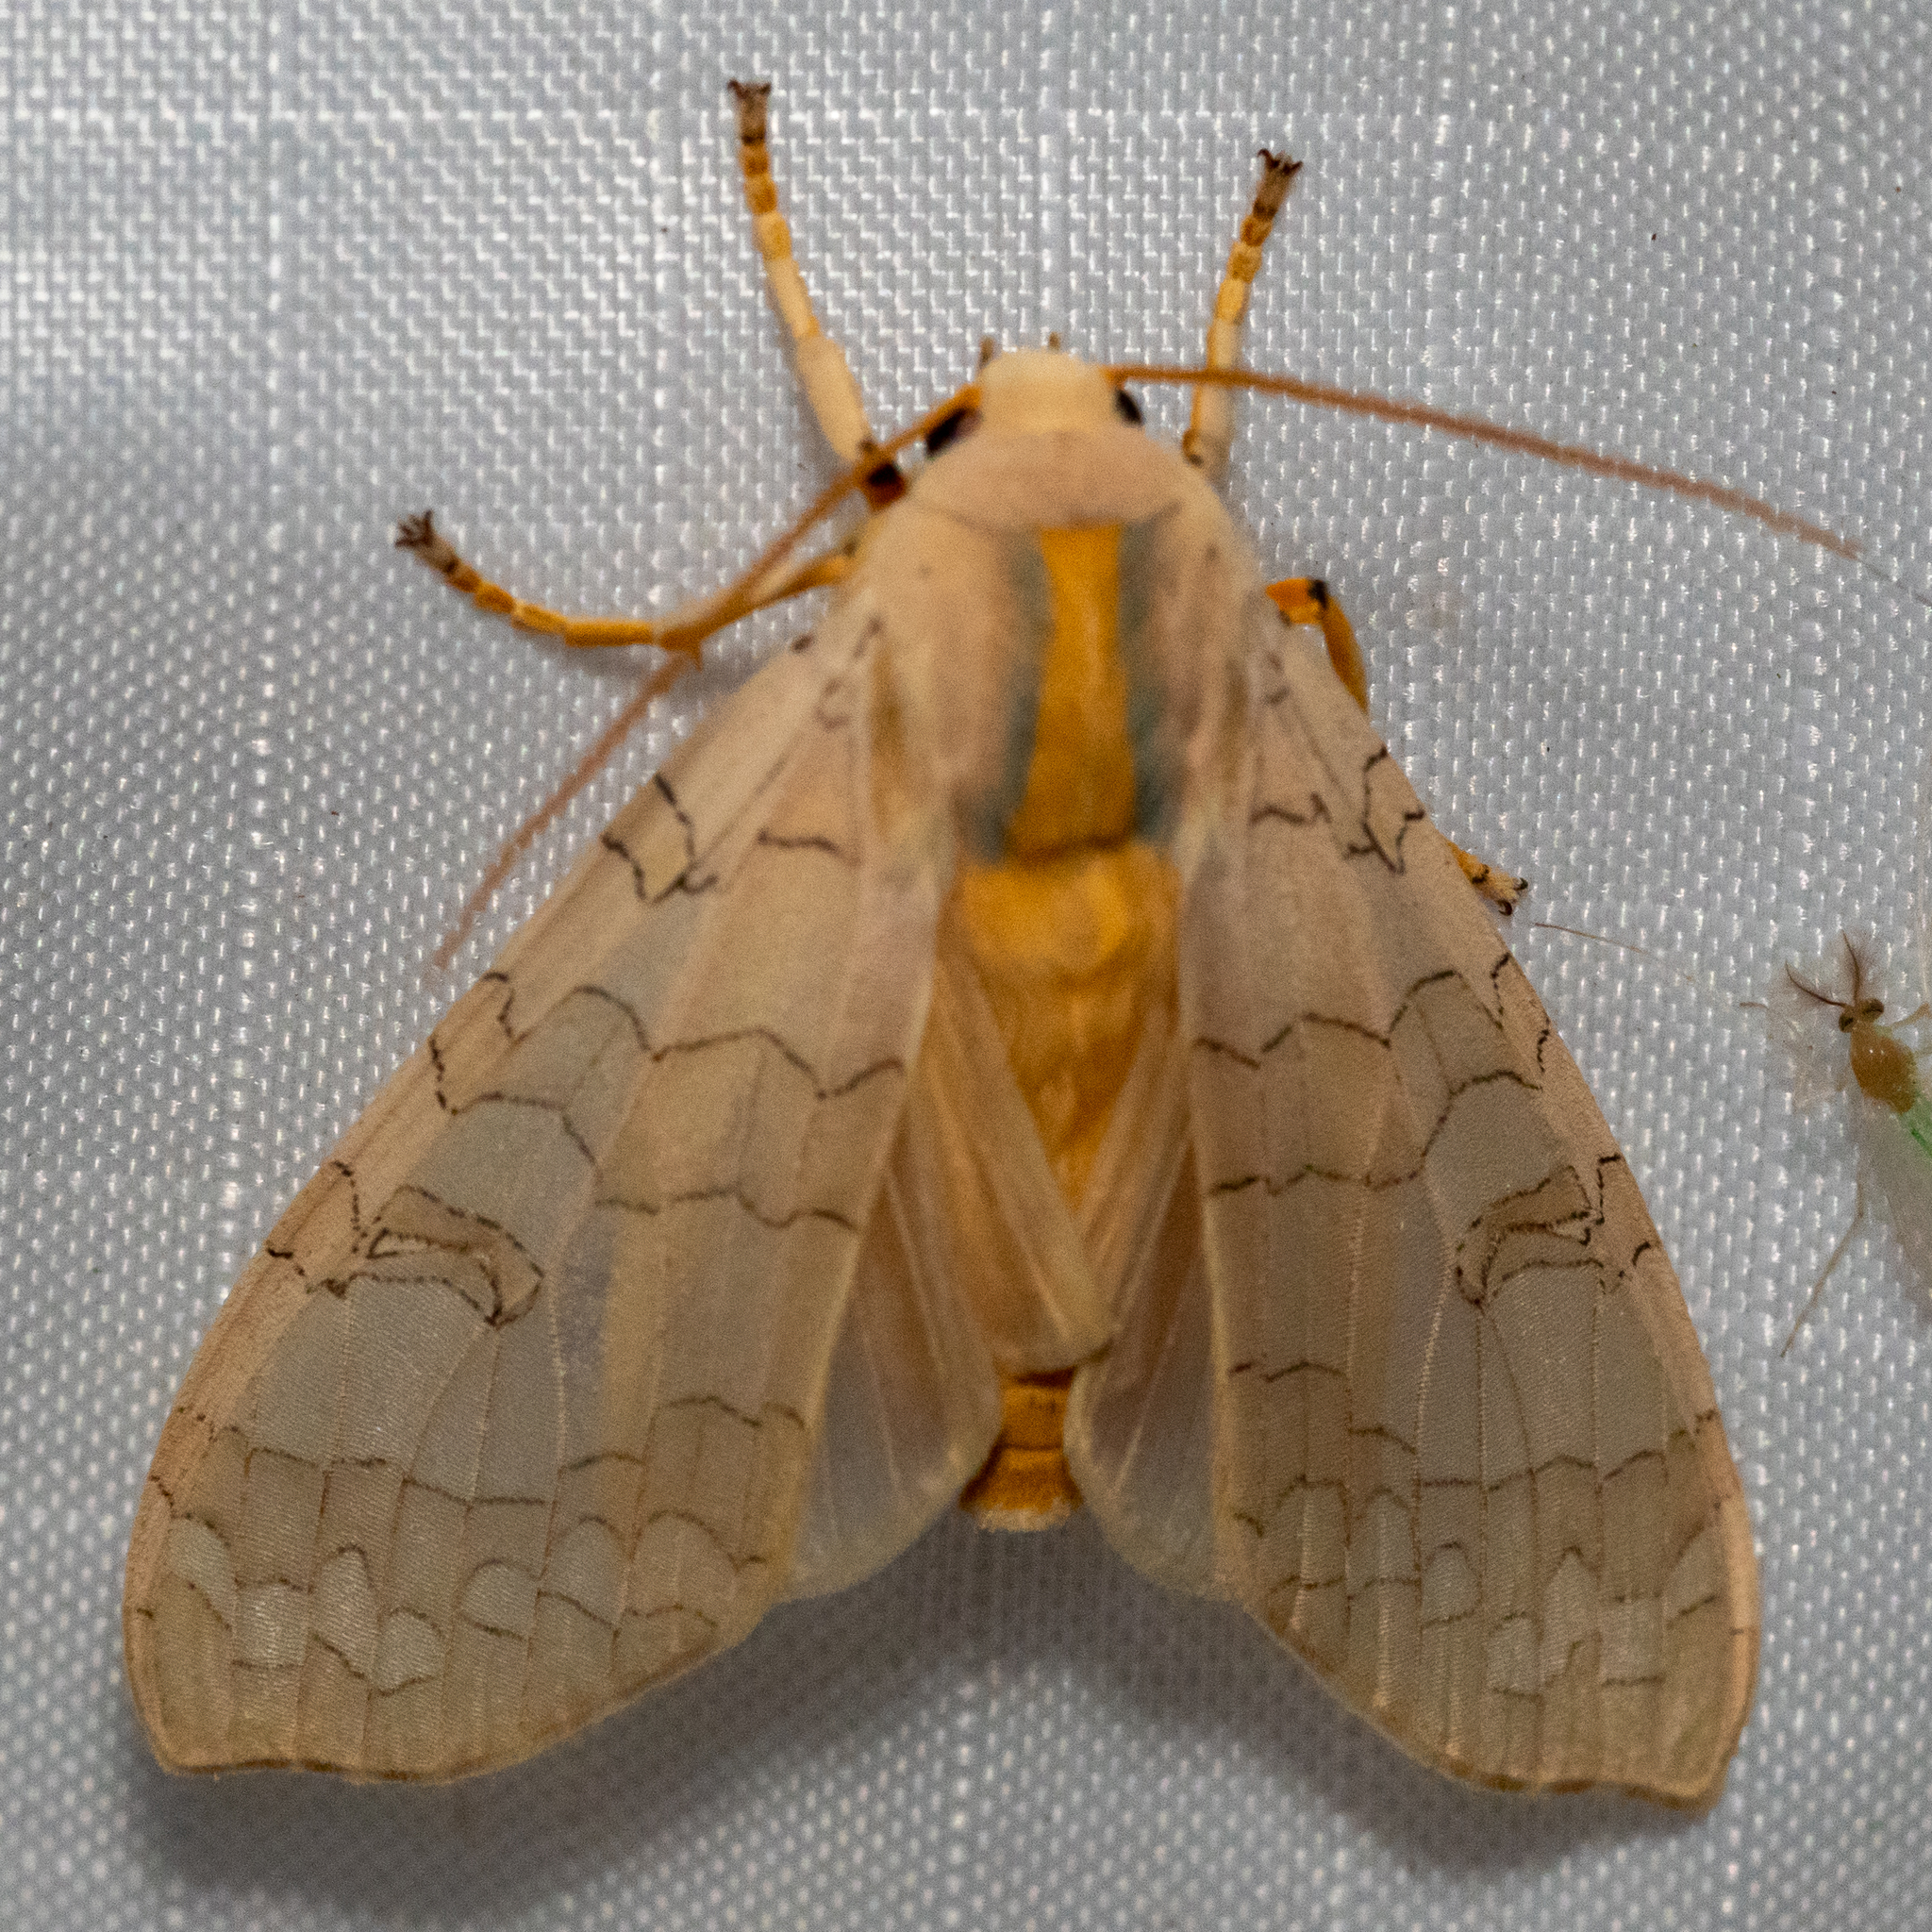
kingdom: Animalia
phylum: Arthropoda
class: Insecta
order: Lepidoptera
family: Erebidae
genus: Halysidota
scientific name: Halysidota
